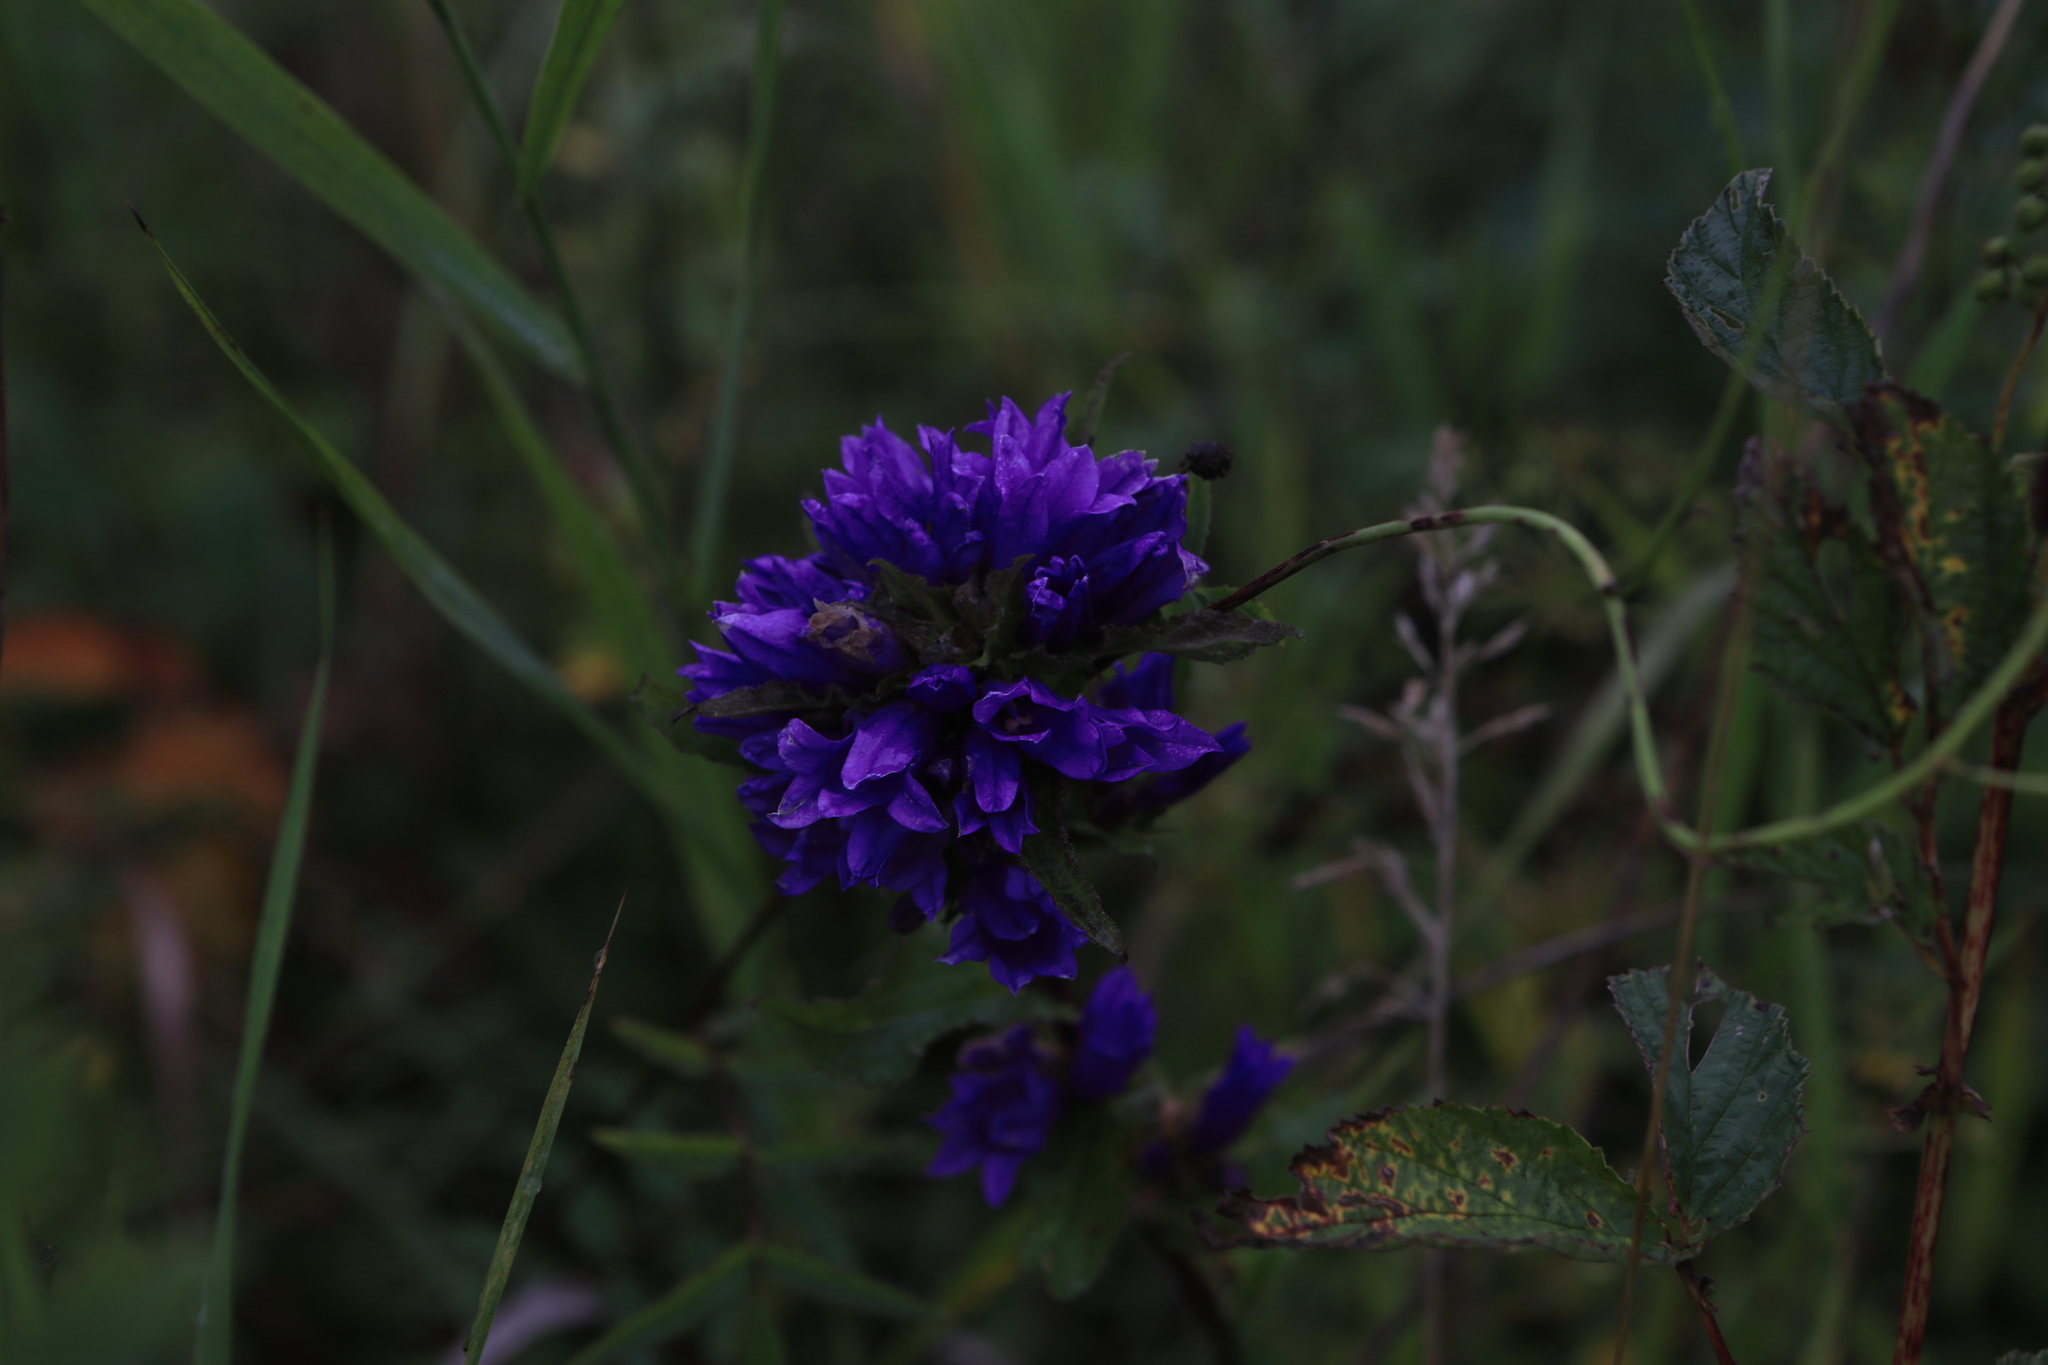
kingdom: Plantae
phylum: Tracheophyta
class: Magnoliopsida
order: Asterales
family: Campanulaceae
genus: Campanula
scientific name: Campanula glomerata
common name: Clustered bellflower
